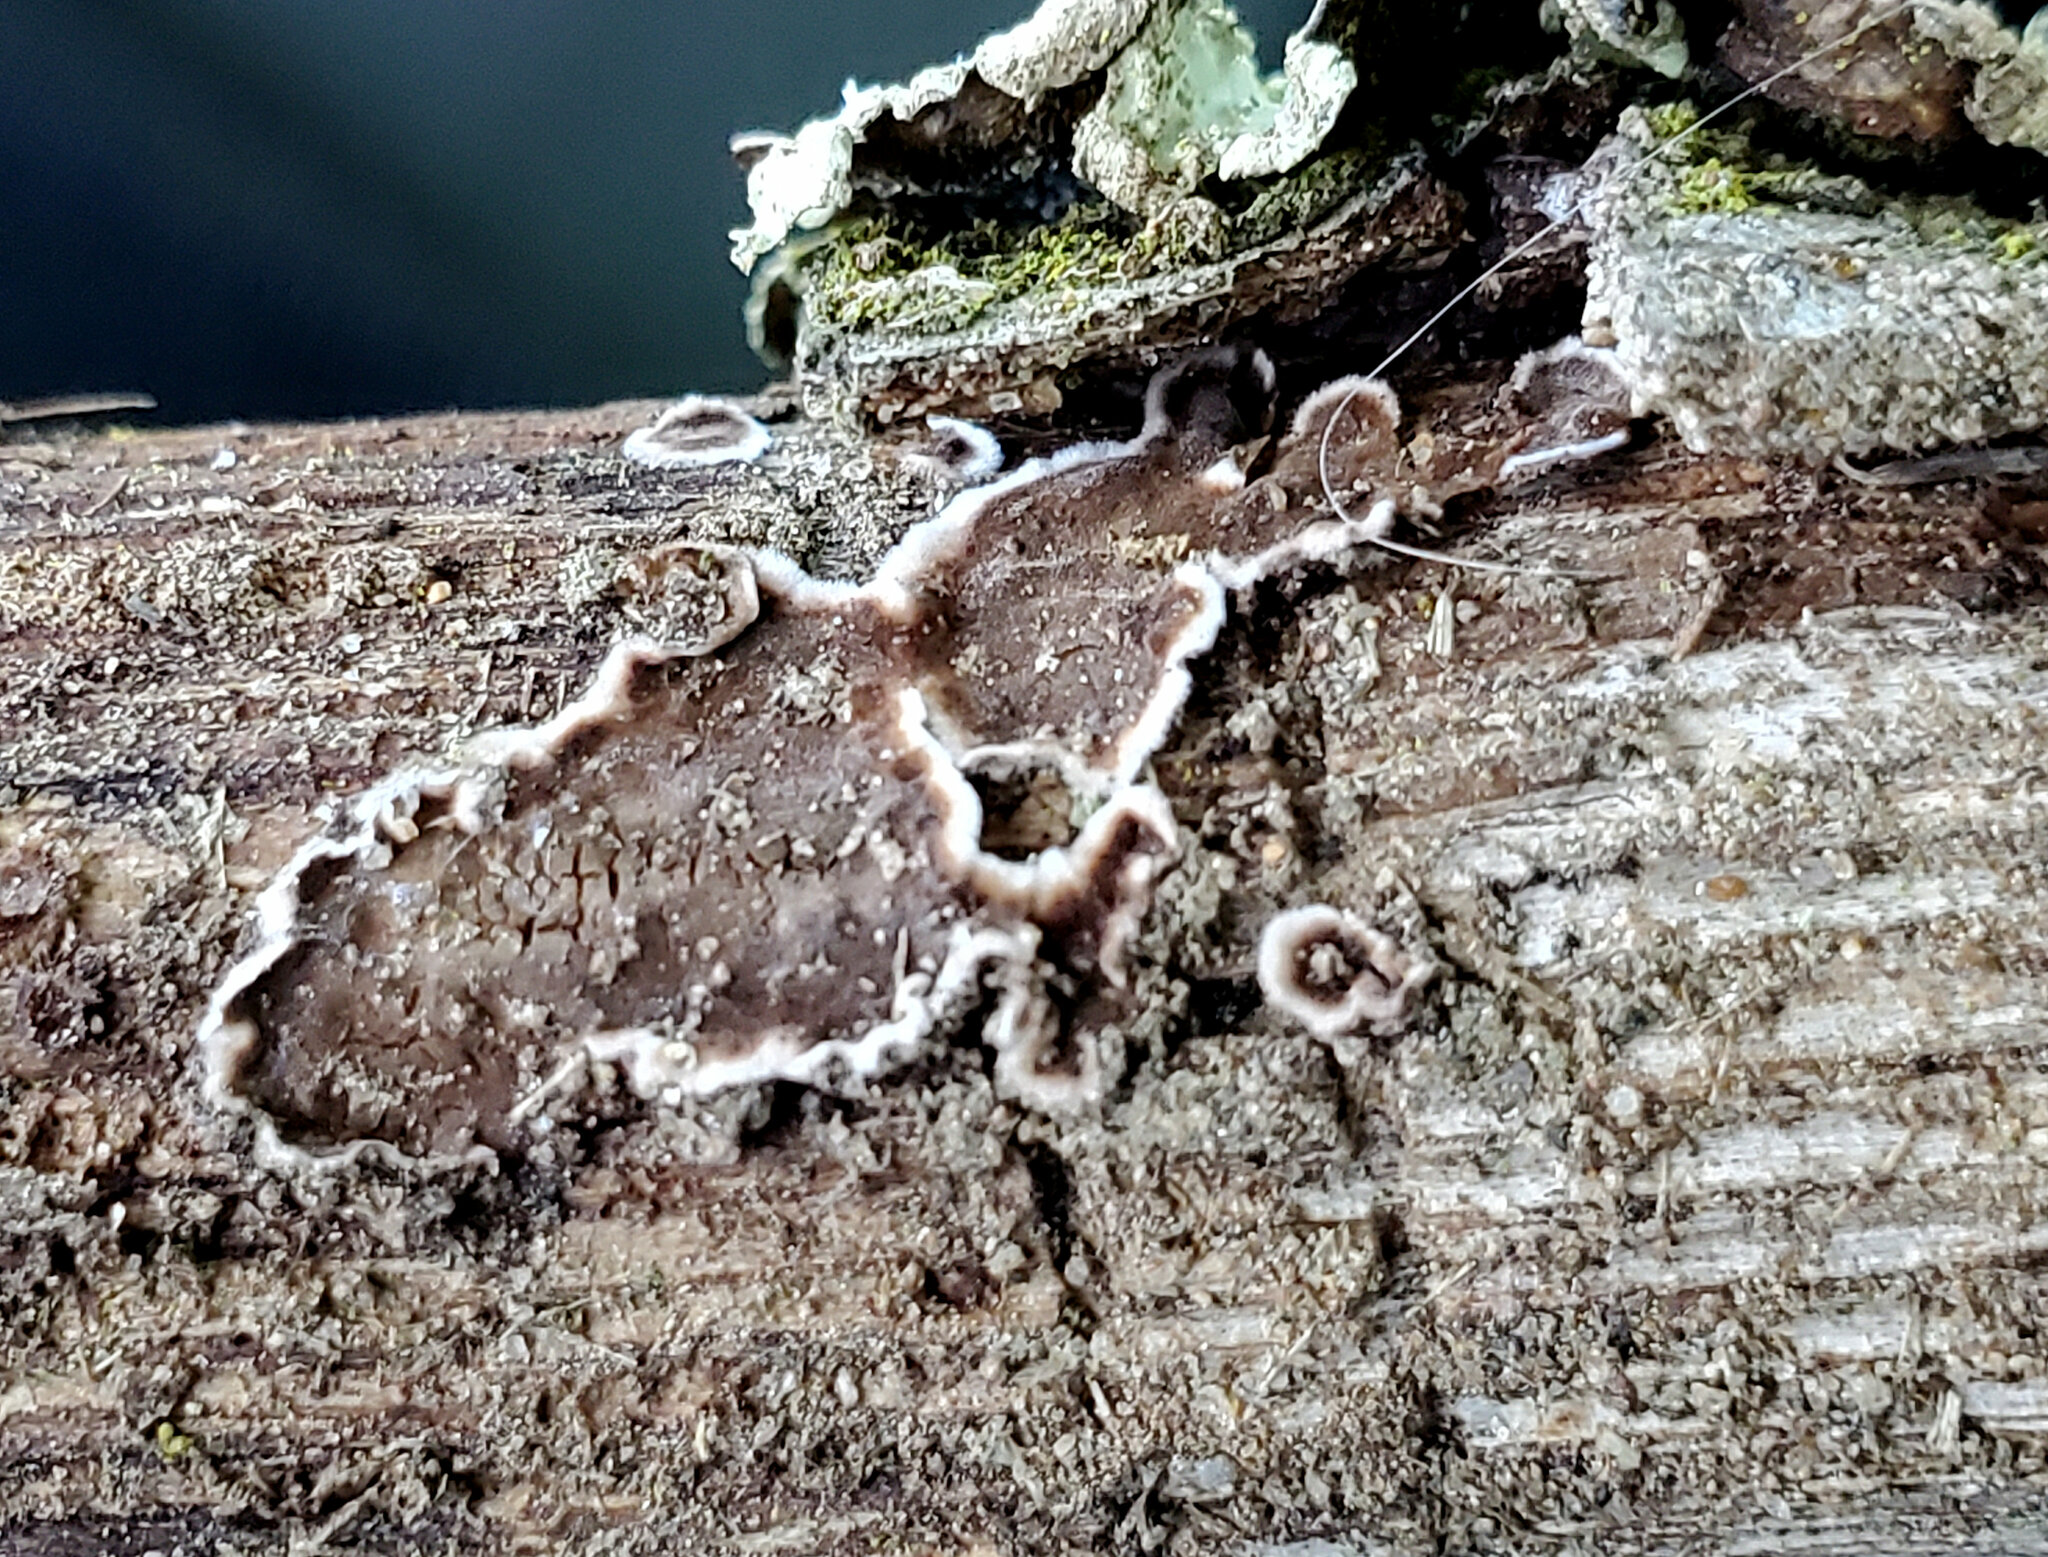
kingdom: Fungi
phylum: Basidiomycota
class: Agaricomycetes
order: Russulales
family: Peniophoraceae
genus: Peniophora
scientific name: Peniophora albobadia
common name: Giraffe spots
